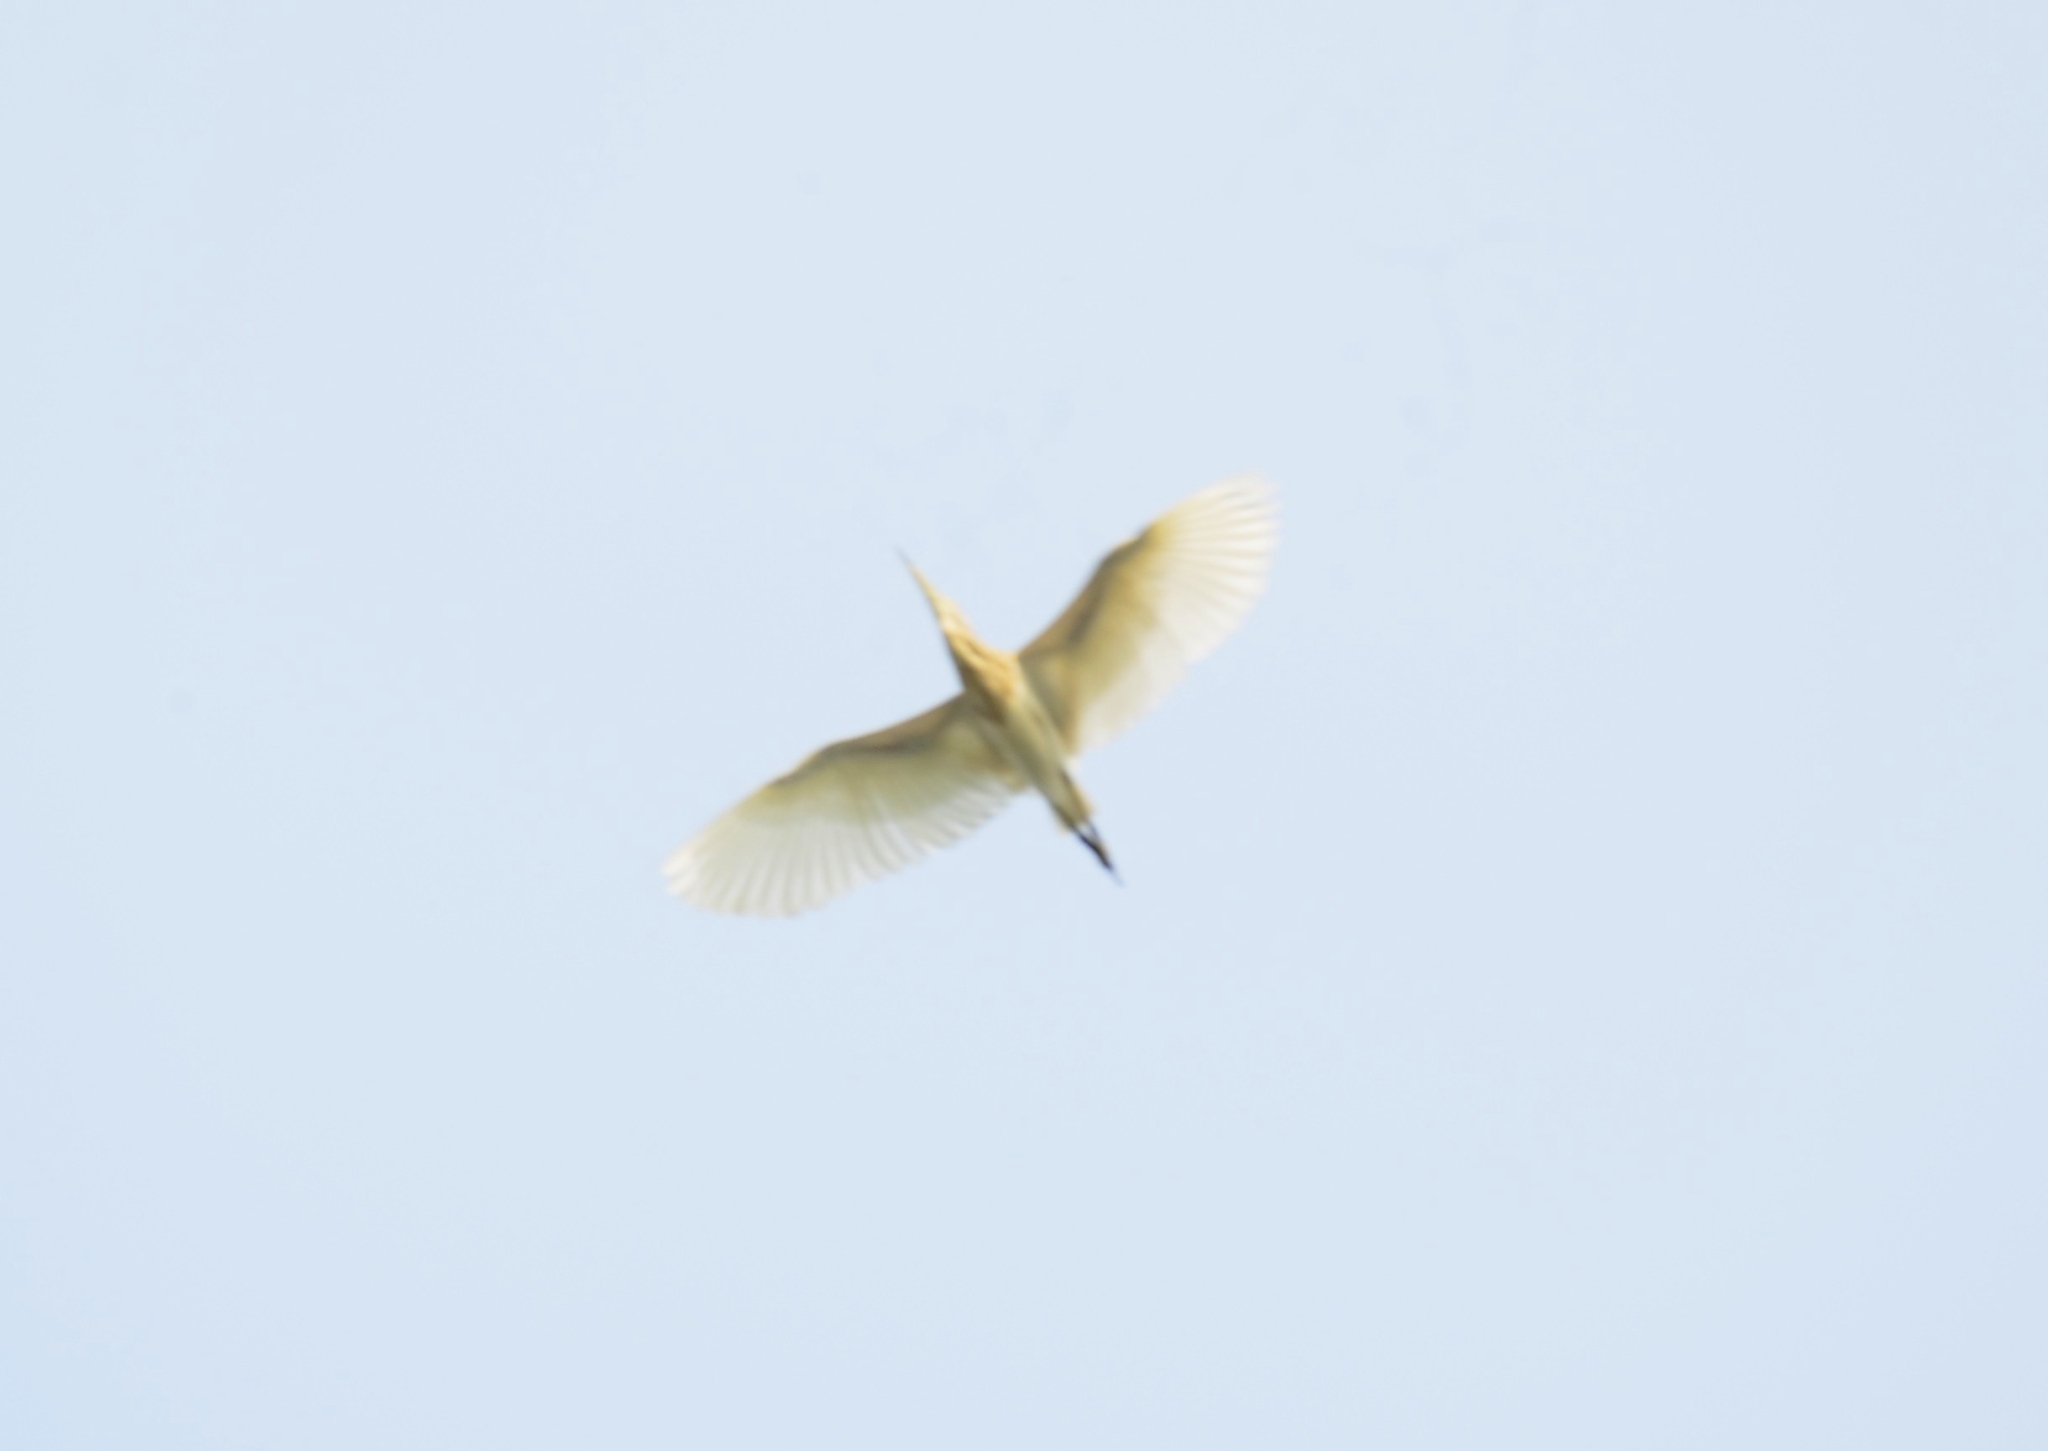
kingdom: Animalia
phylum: Chordata
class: Aves
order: Pelecaniformes
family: Ardeidae
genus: Ardeola
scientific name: Ardeola grayii
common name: Indian pond heron
